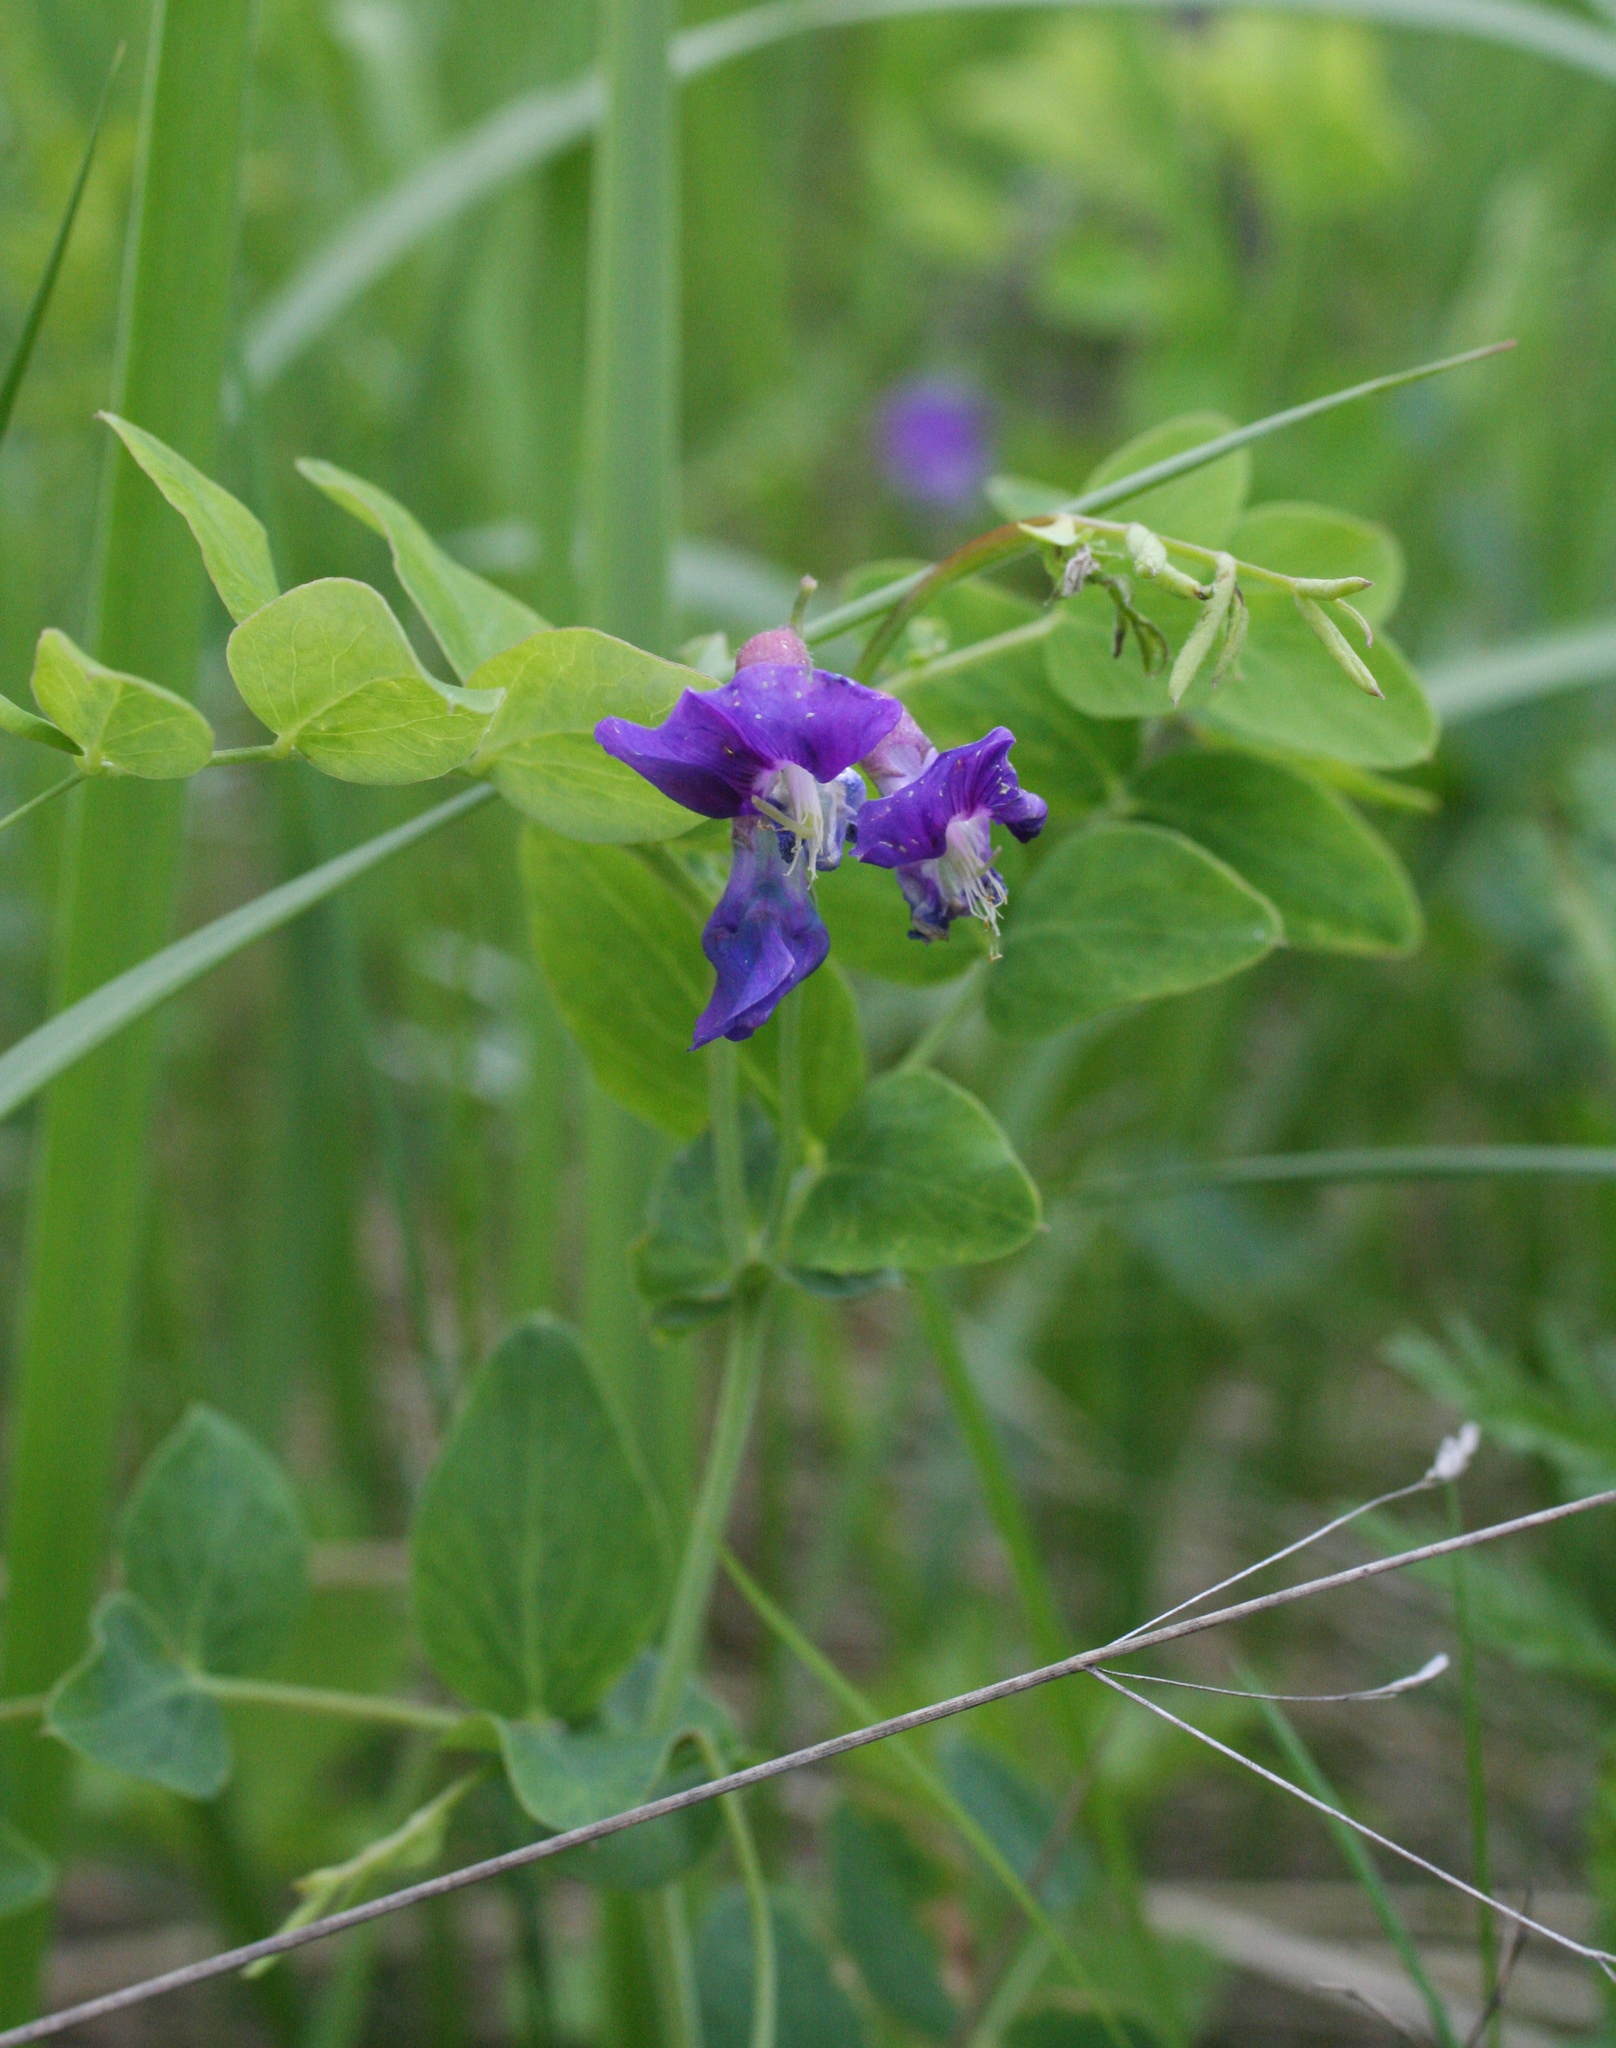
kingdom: Plantae
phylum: Tracheophyta
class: Magnoliopsida
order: Fabales
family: Fabaceae
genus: Lathyrus
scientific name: Lathyrus humilis
